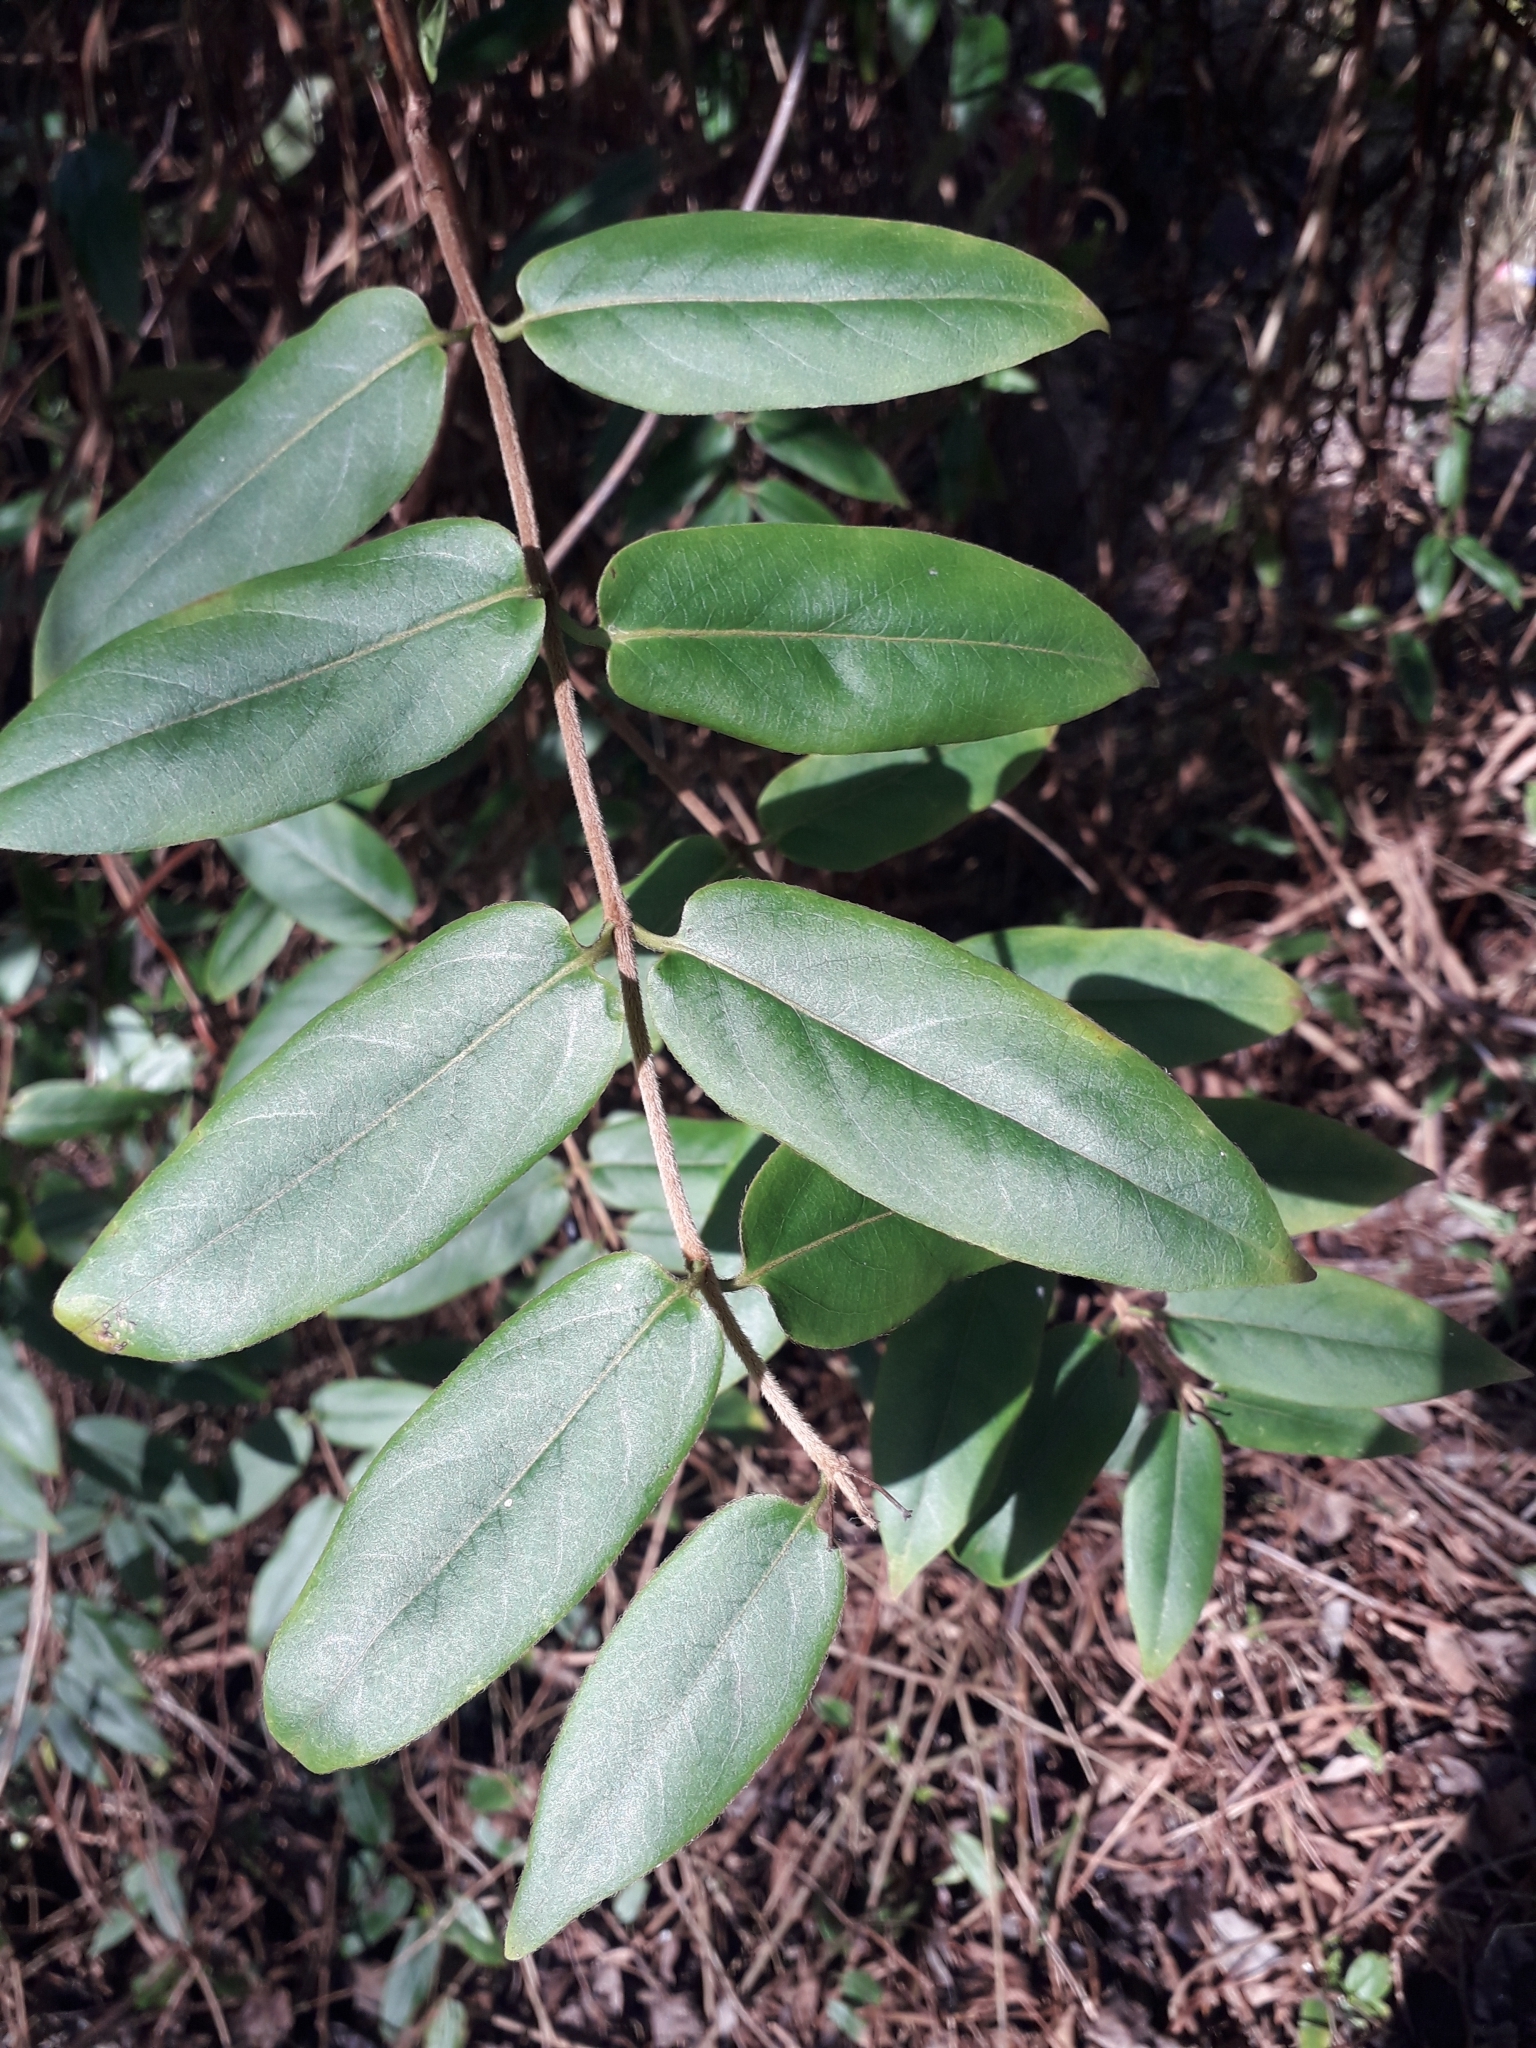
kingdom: Plantae
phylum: Tracheophyta
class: Magnoliopsida
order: Dipsacales
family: Caprifoliaceae
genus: Lonicera
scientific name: Lonicera acuminata
